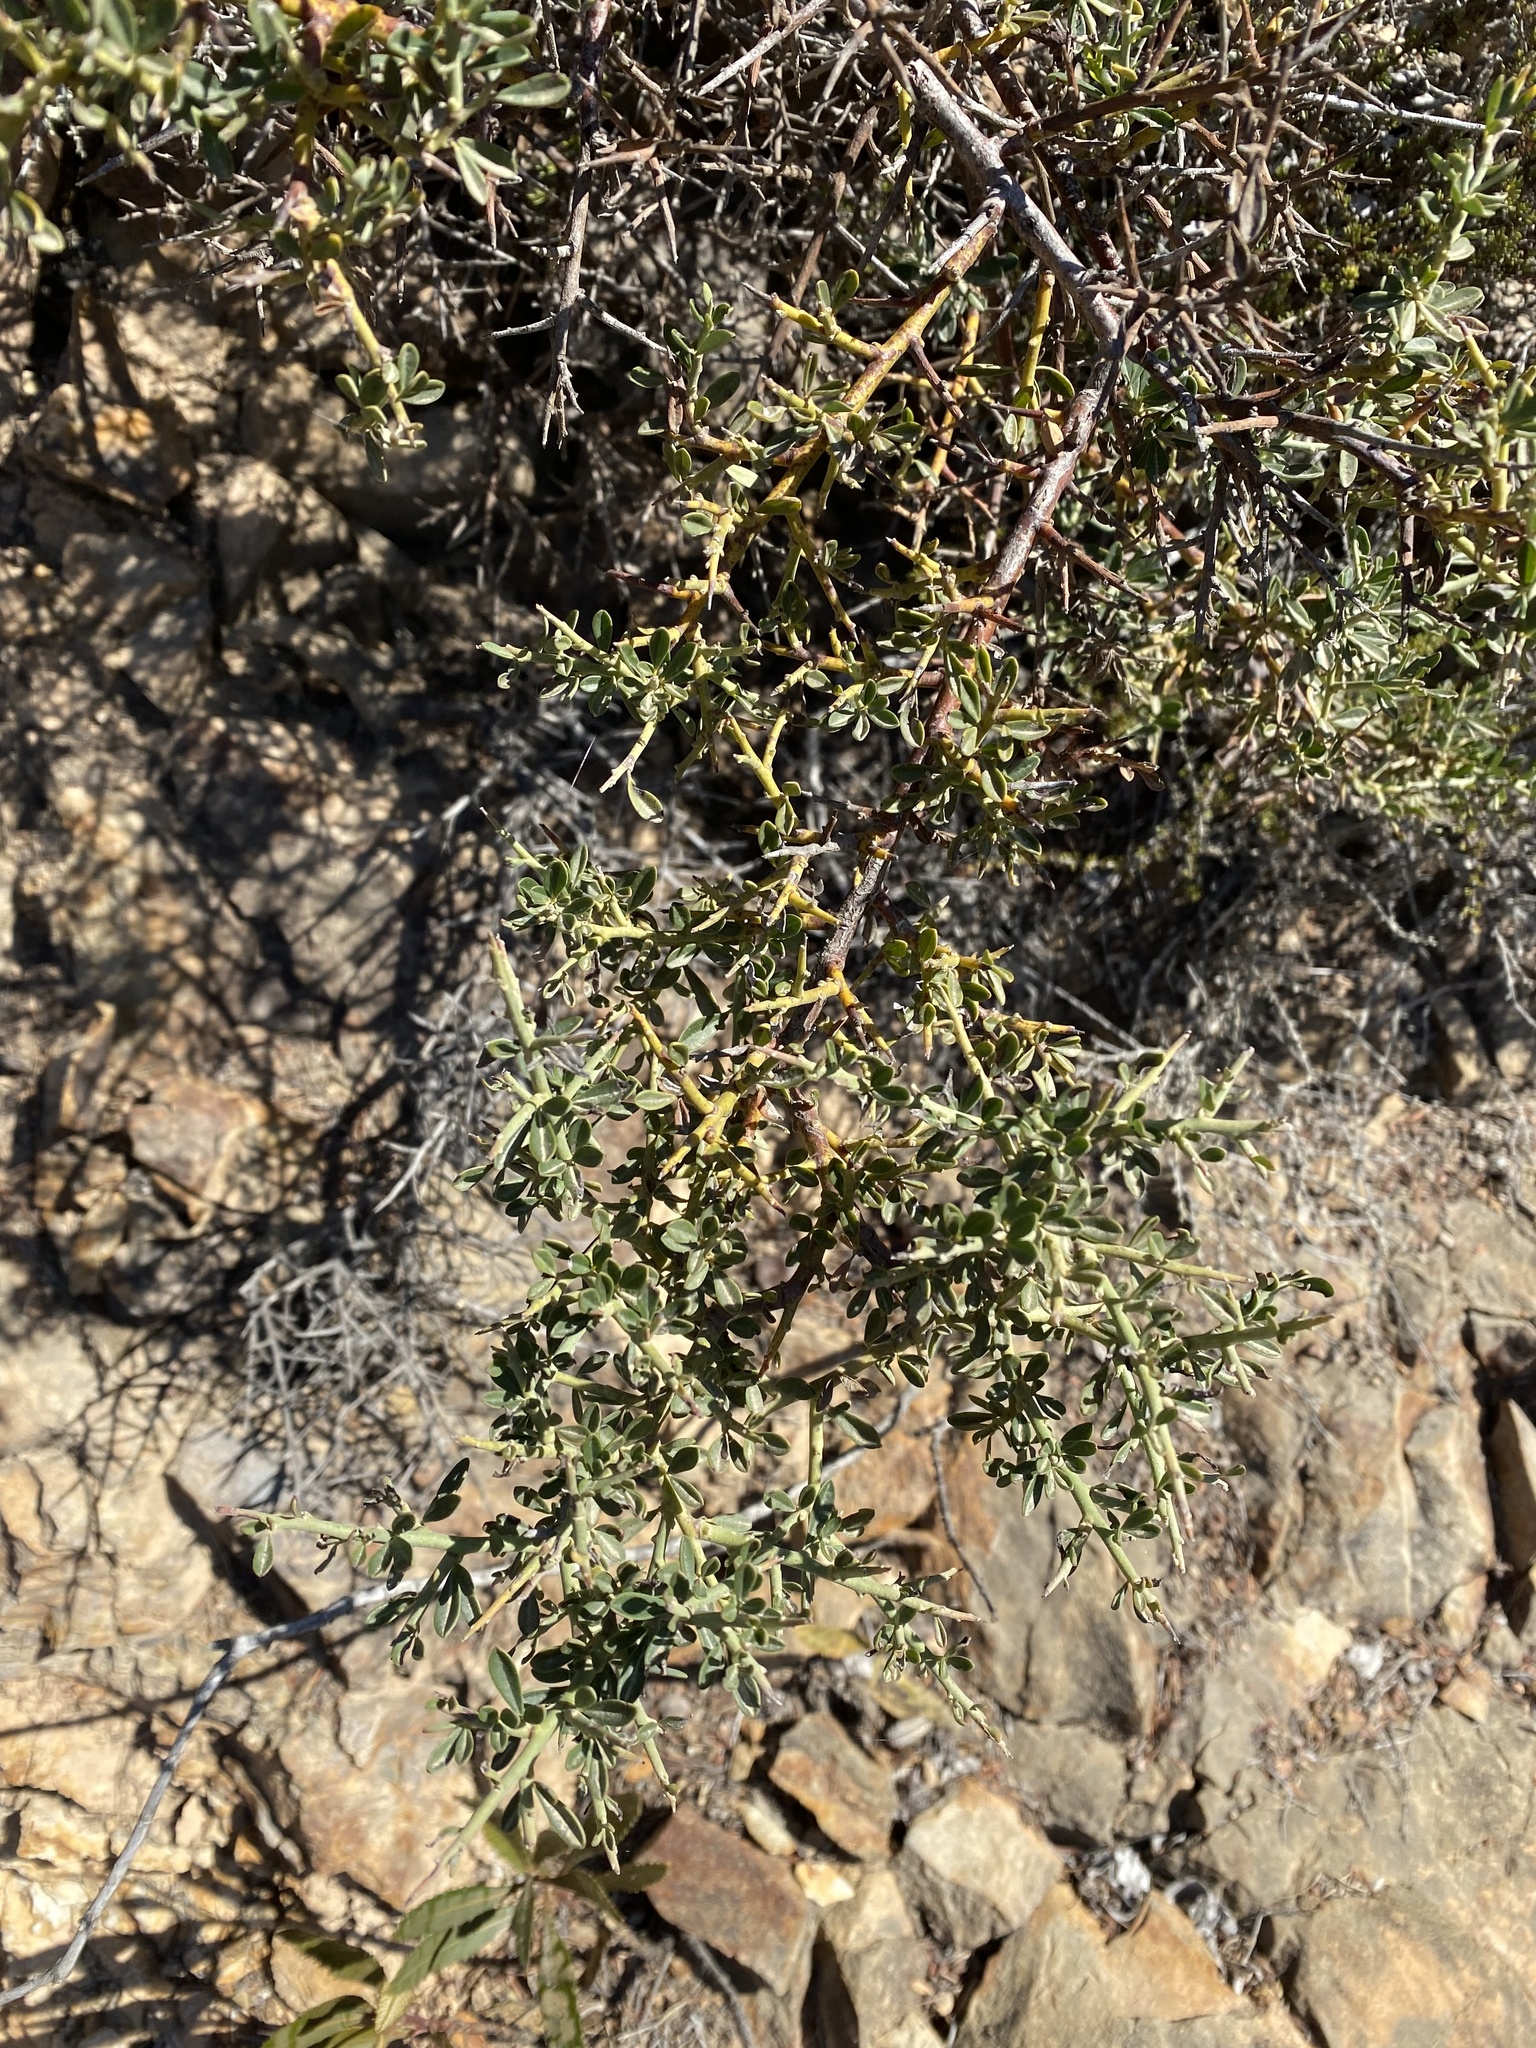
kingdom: Plantae
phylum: Tracheophyta
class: Magnoliopsida
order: Fabales
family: Fabaceae
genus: Pickeringia
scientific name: Pickeringia montana
